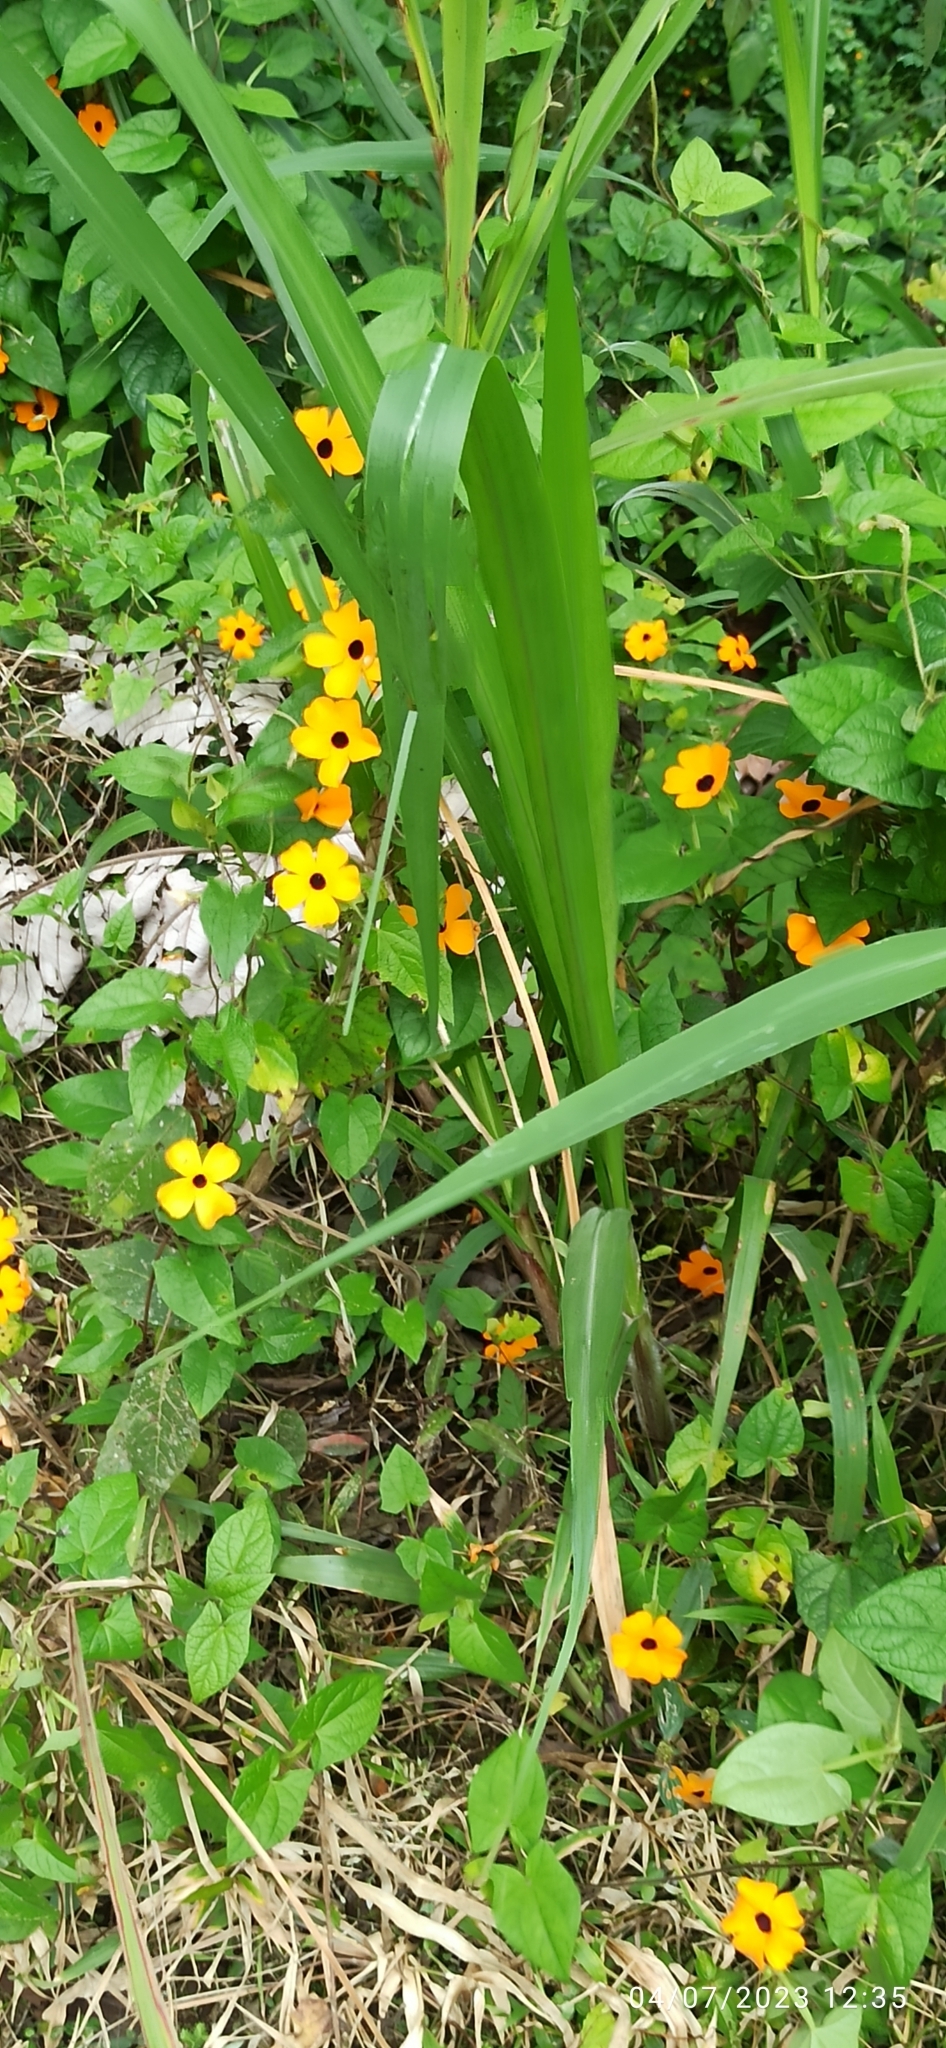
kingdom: Plantae
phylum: Tracheophyta
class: Magnoliopsida
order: Lamiales
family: Acanthaceae
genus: Thunbergia
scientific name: Thunbergia alata
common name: Blackeyed susan vine
